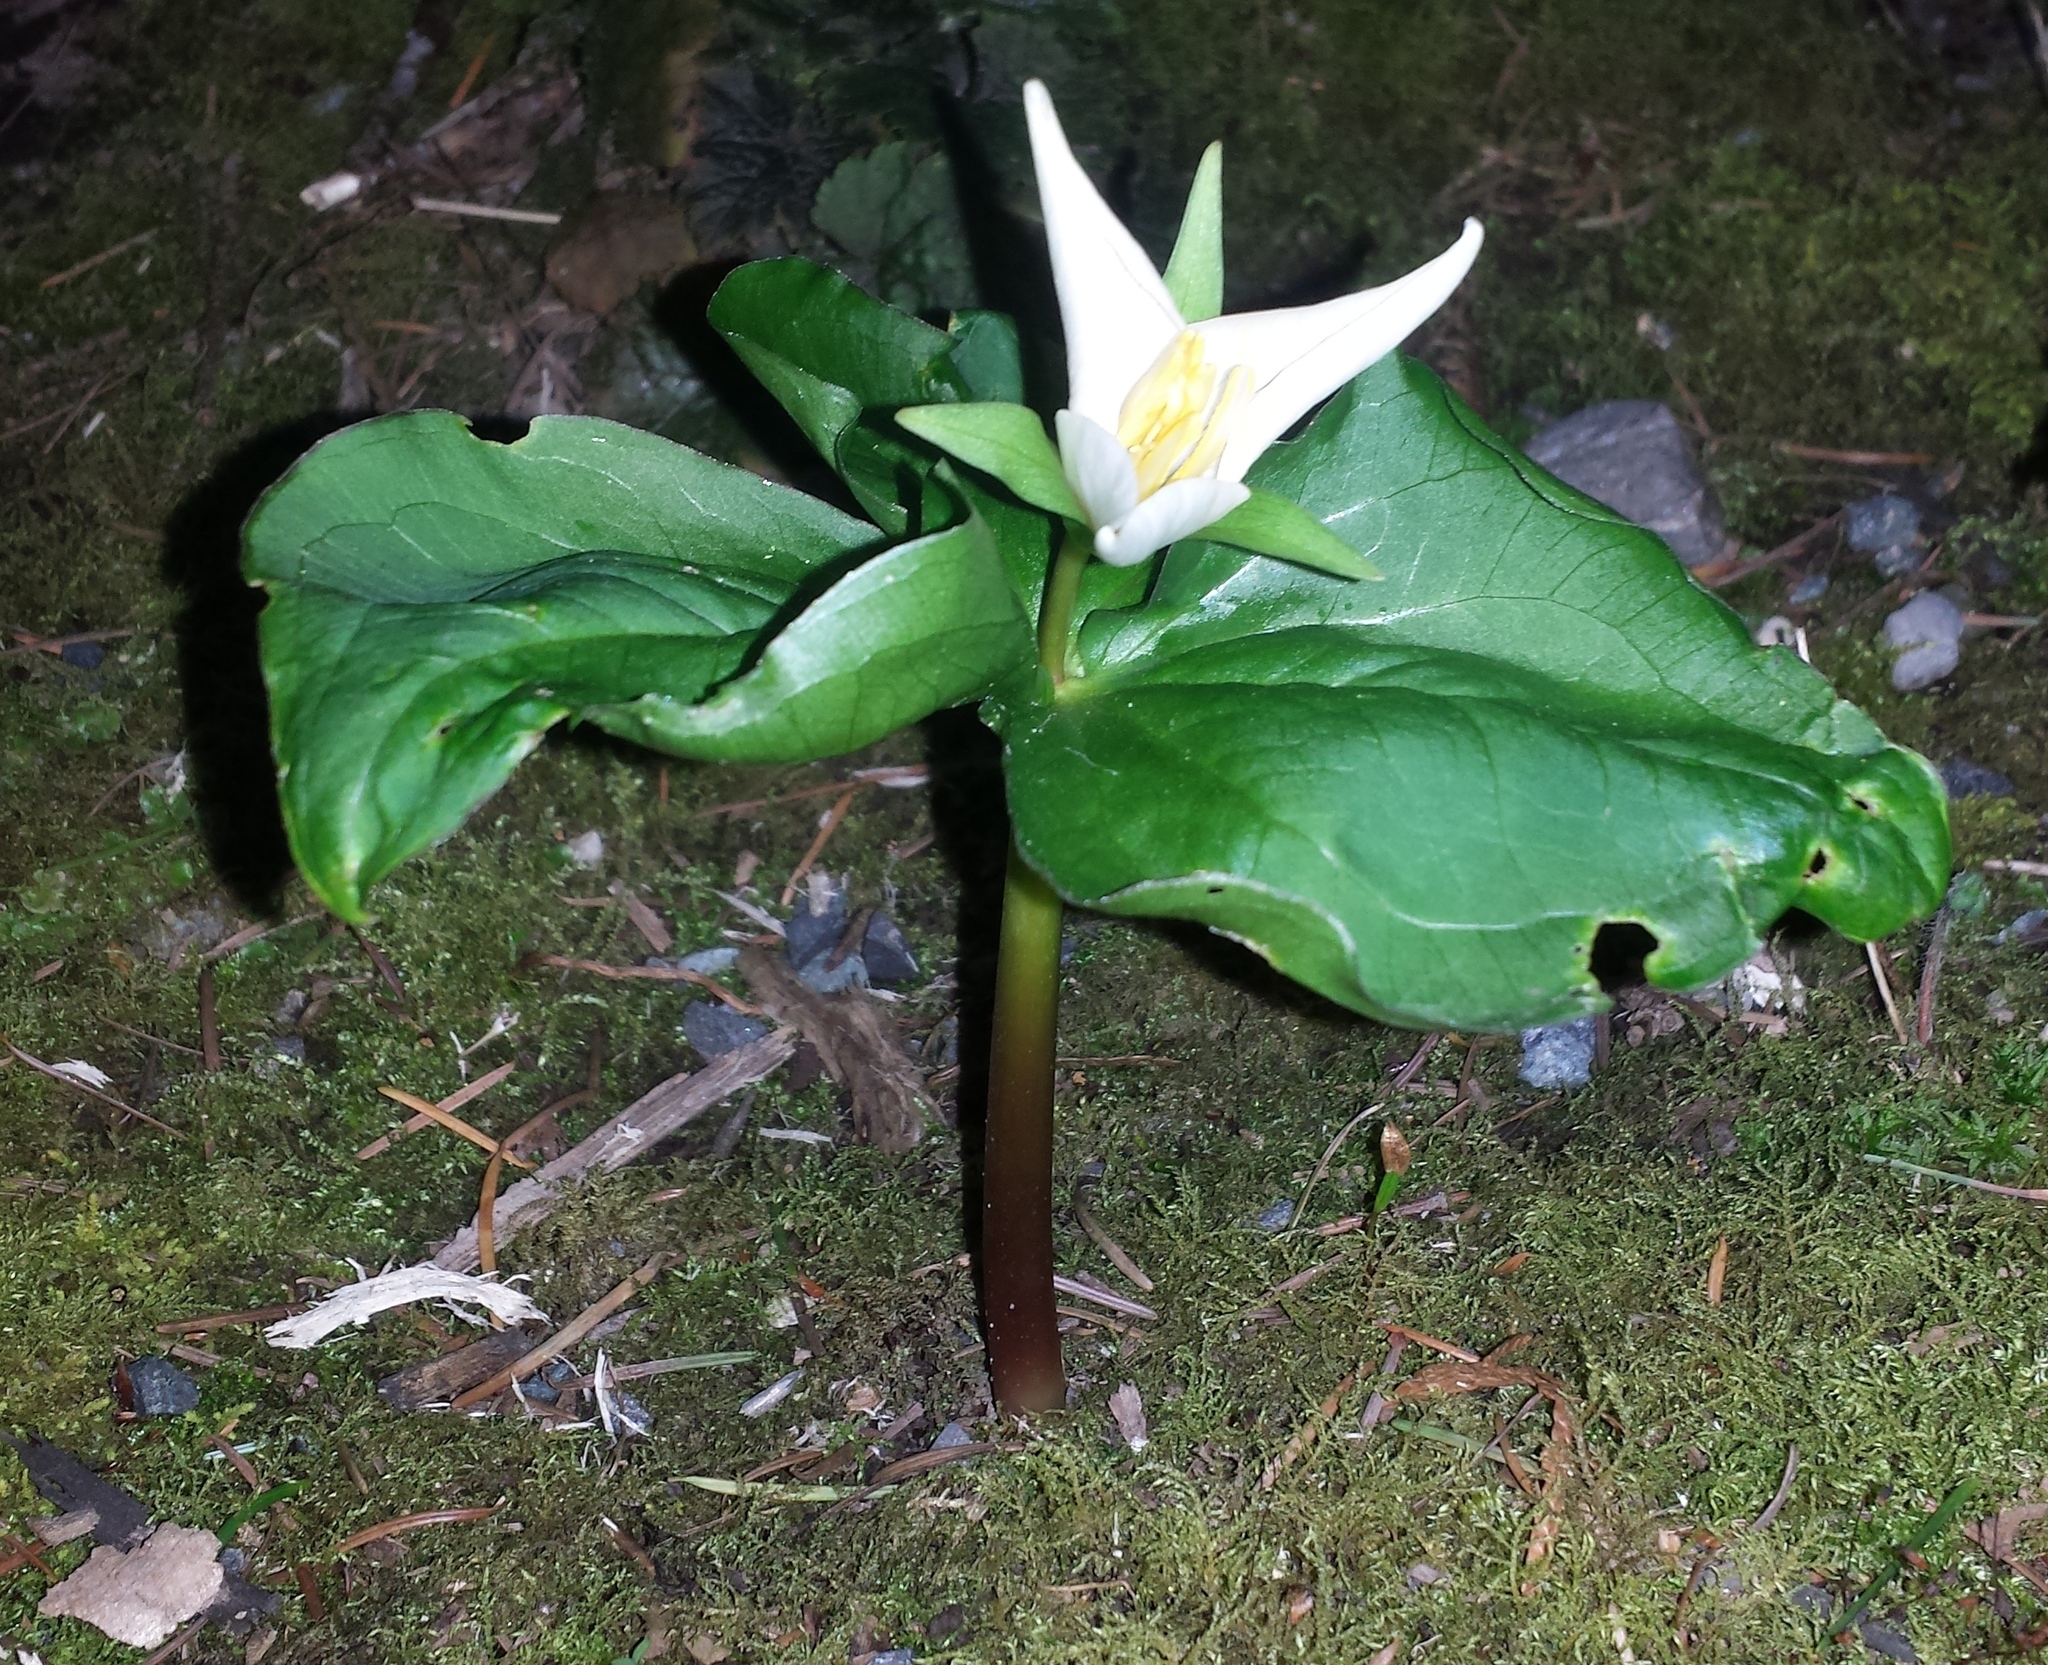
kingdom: Plantae
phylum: Tracheophyta
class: Liliopsida
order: Liliales
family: Melanthiaceae
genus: Trillium
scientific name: Trillium ovatum
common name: Pacific trillium
